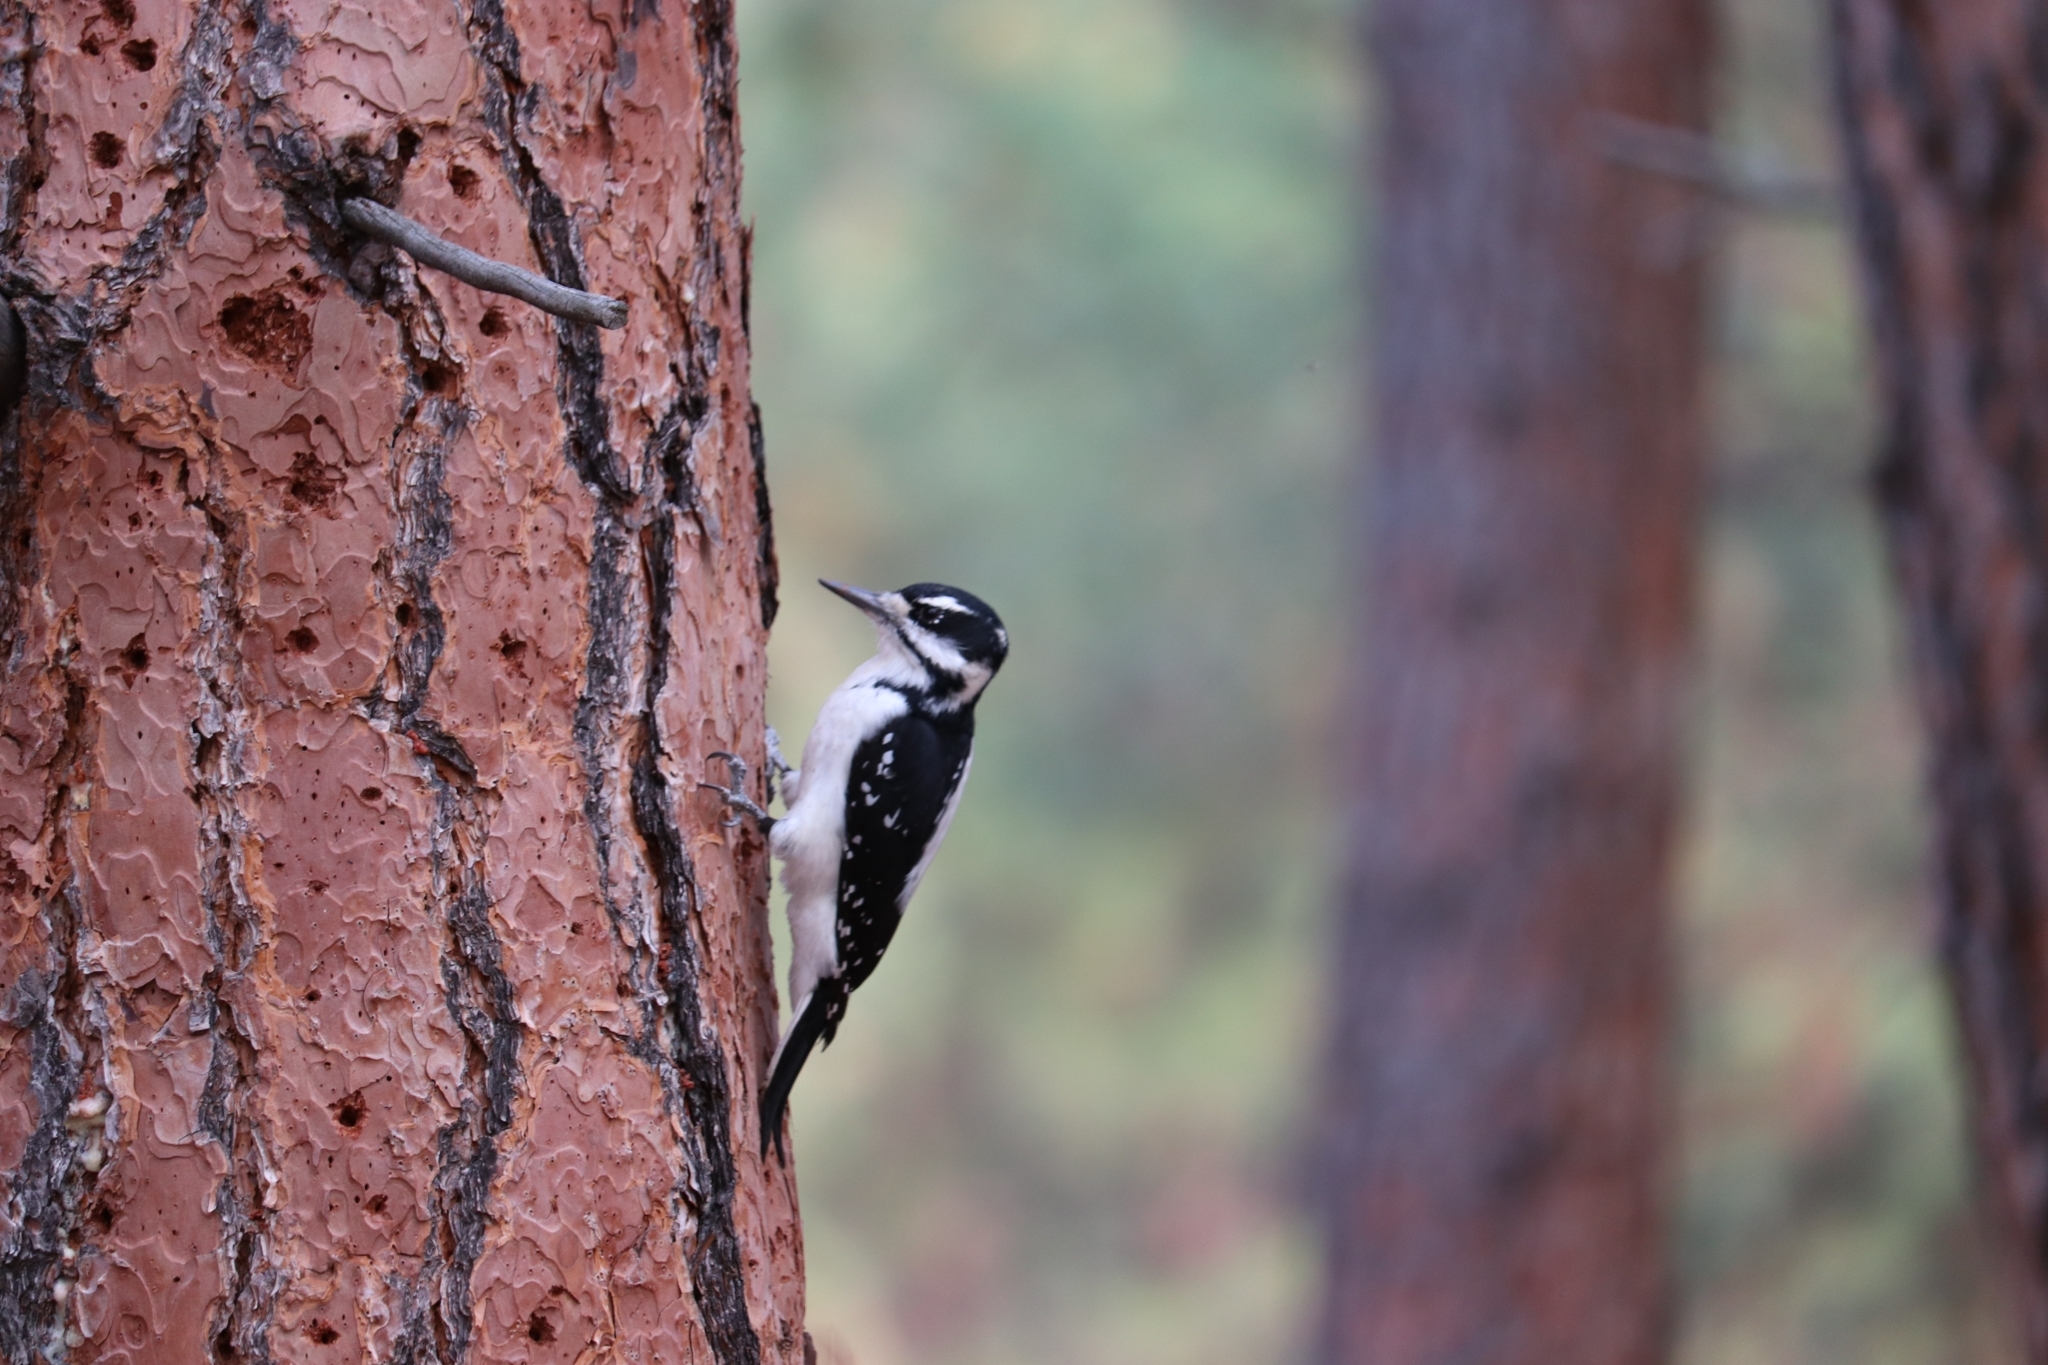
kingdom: Animalia
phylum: Chordata
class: Aves
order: Piciformes
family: Picidae
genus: Leuconotopicus
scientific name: Leuconotopicus villosus
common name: Hairy woodpecker
